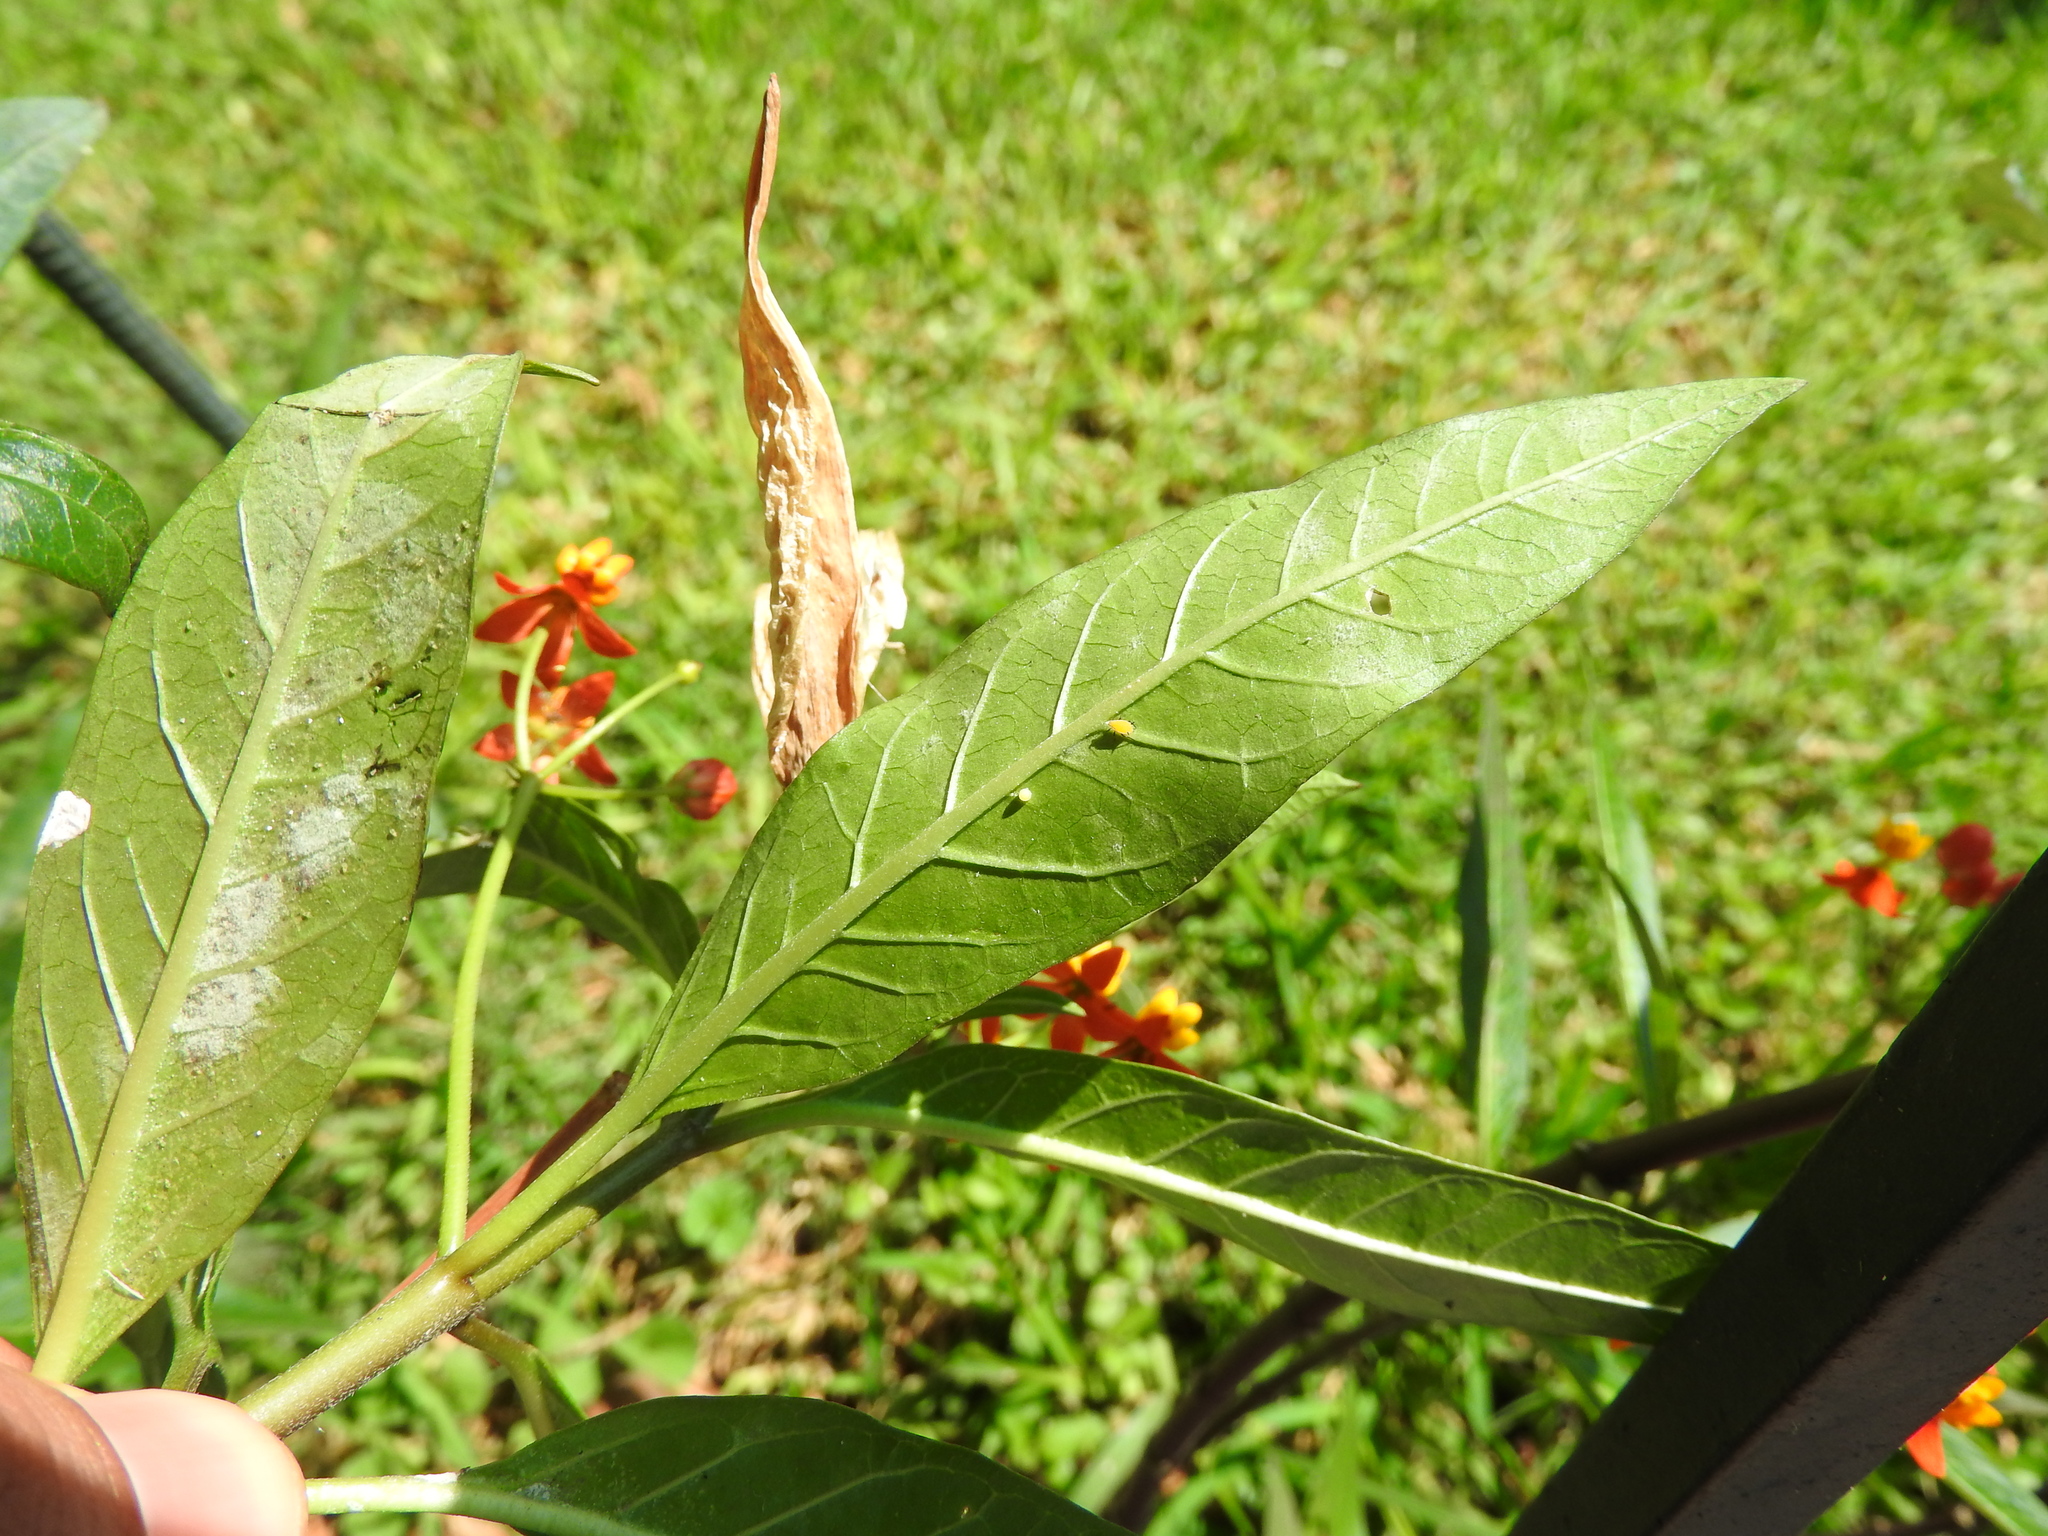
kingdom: Animalia
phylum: Arthropoda
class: Insecta
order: Lepidoptera
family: Nymphalidae
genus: Danaus
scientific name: Danaus plexippus
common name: Monarch
